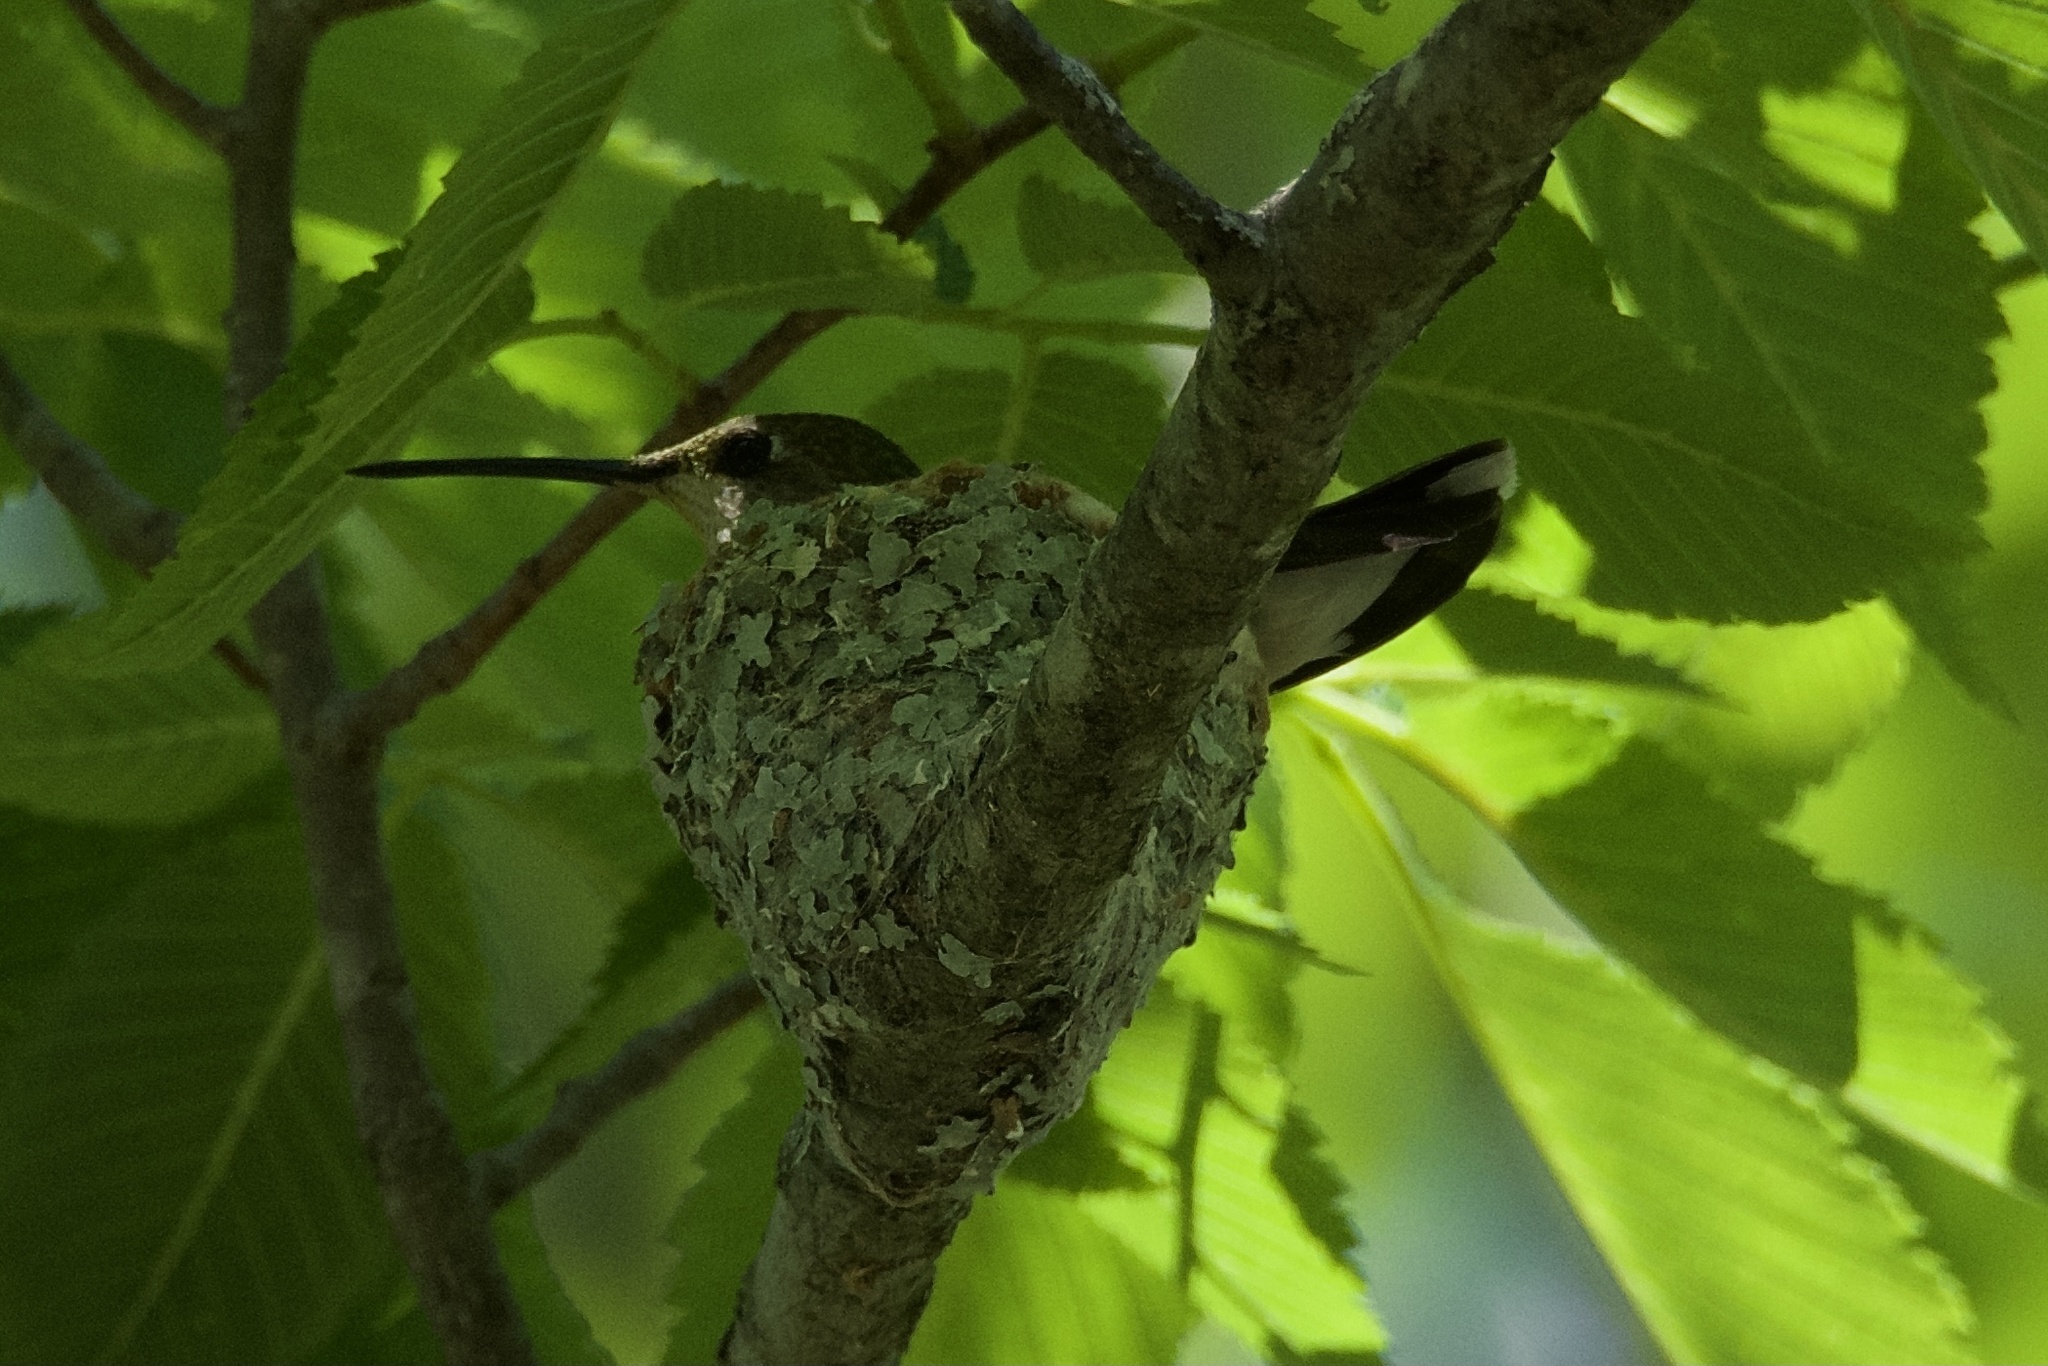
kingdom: Animalia
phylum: Chordata
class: Aves
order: Apodiformes
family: Trochilidae
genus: Archilochus
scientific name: Archilochus colubris
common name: Ruby-throated hummingbird
